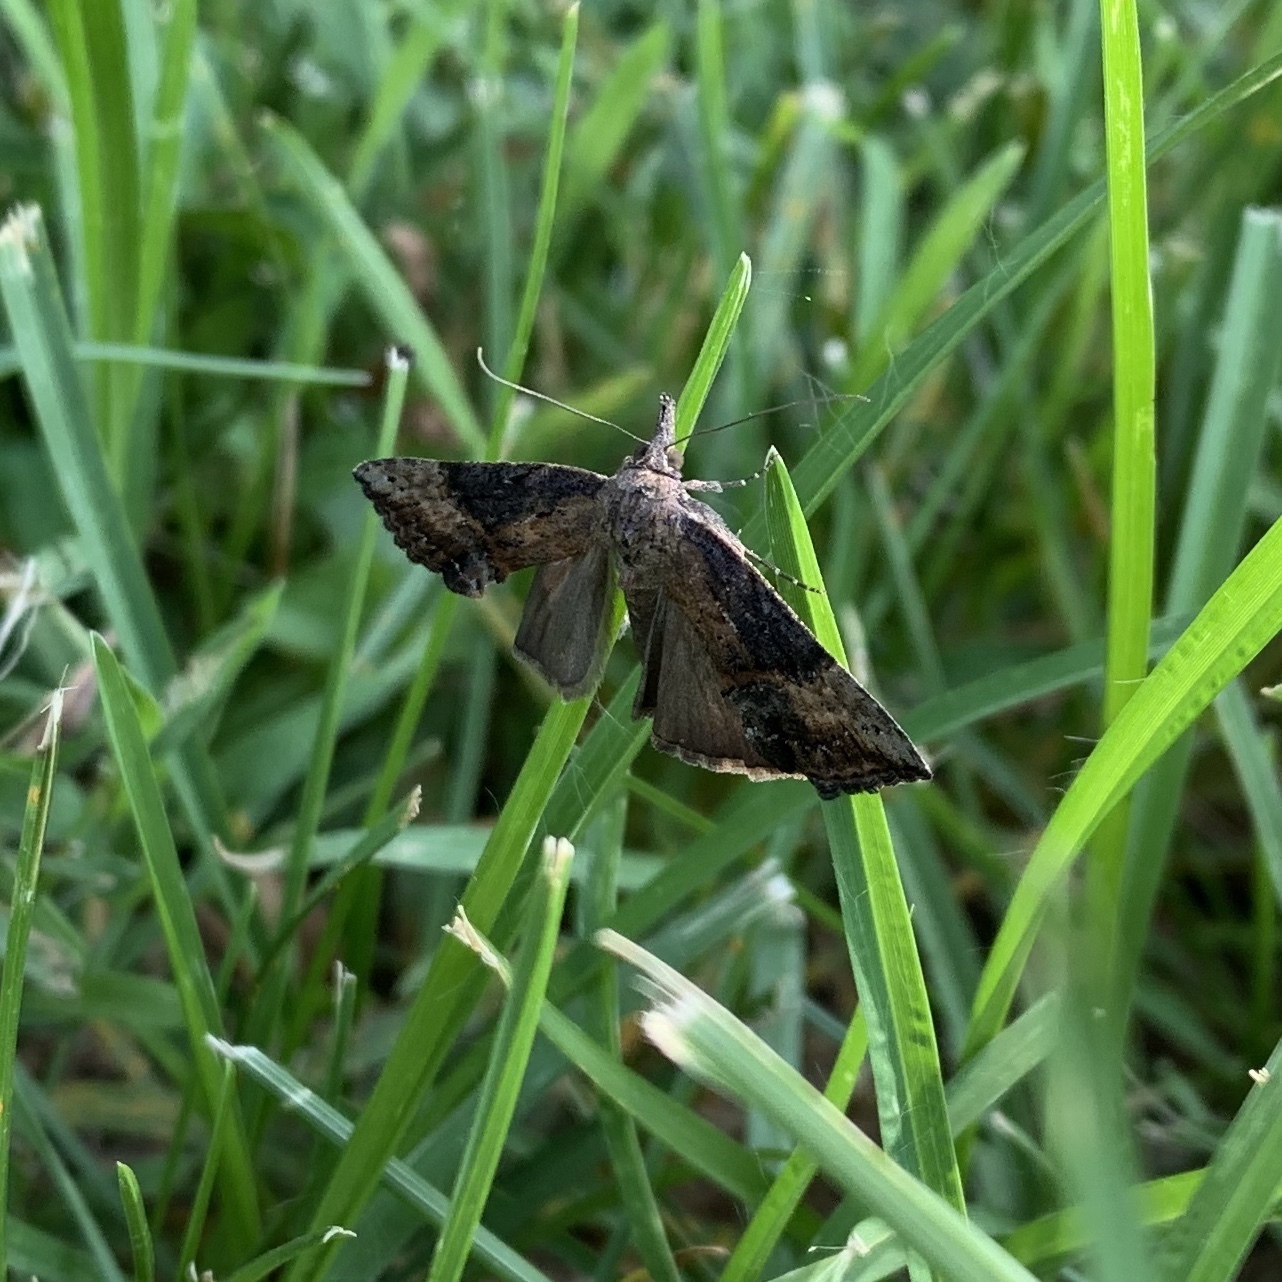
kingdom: Animalia
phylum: Arthropoda
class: Insecta
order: Lepidoptera
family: Erebidae
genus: Hypena
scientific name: Hypena scabra
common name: Green cloverworm
